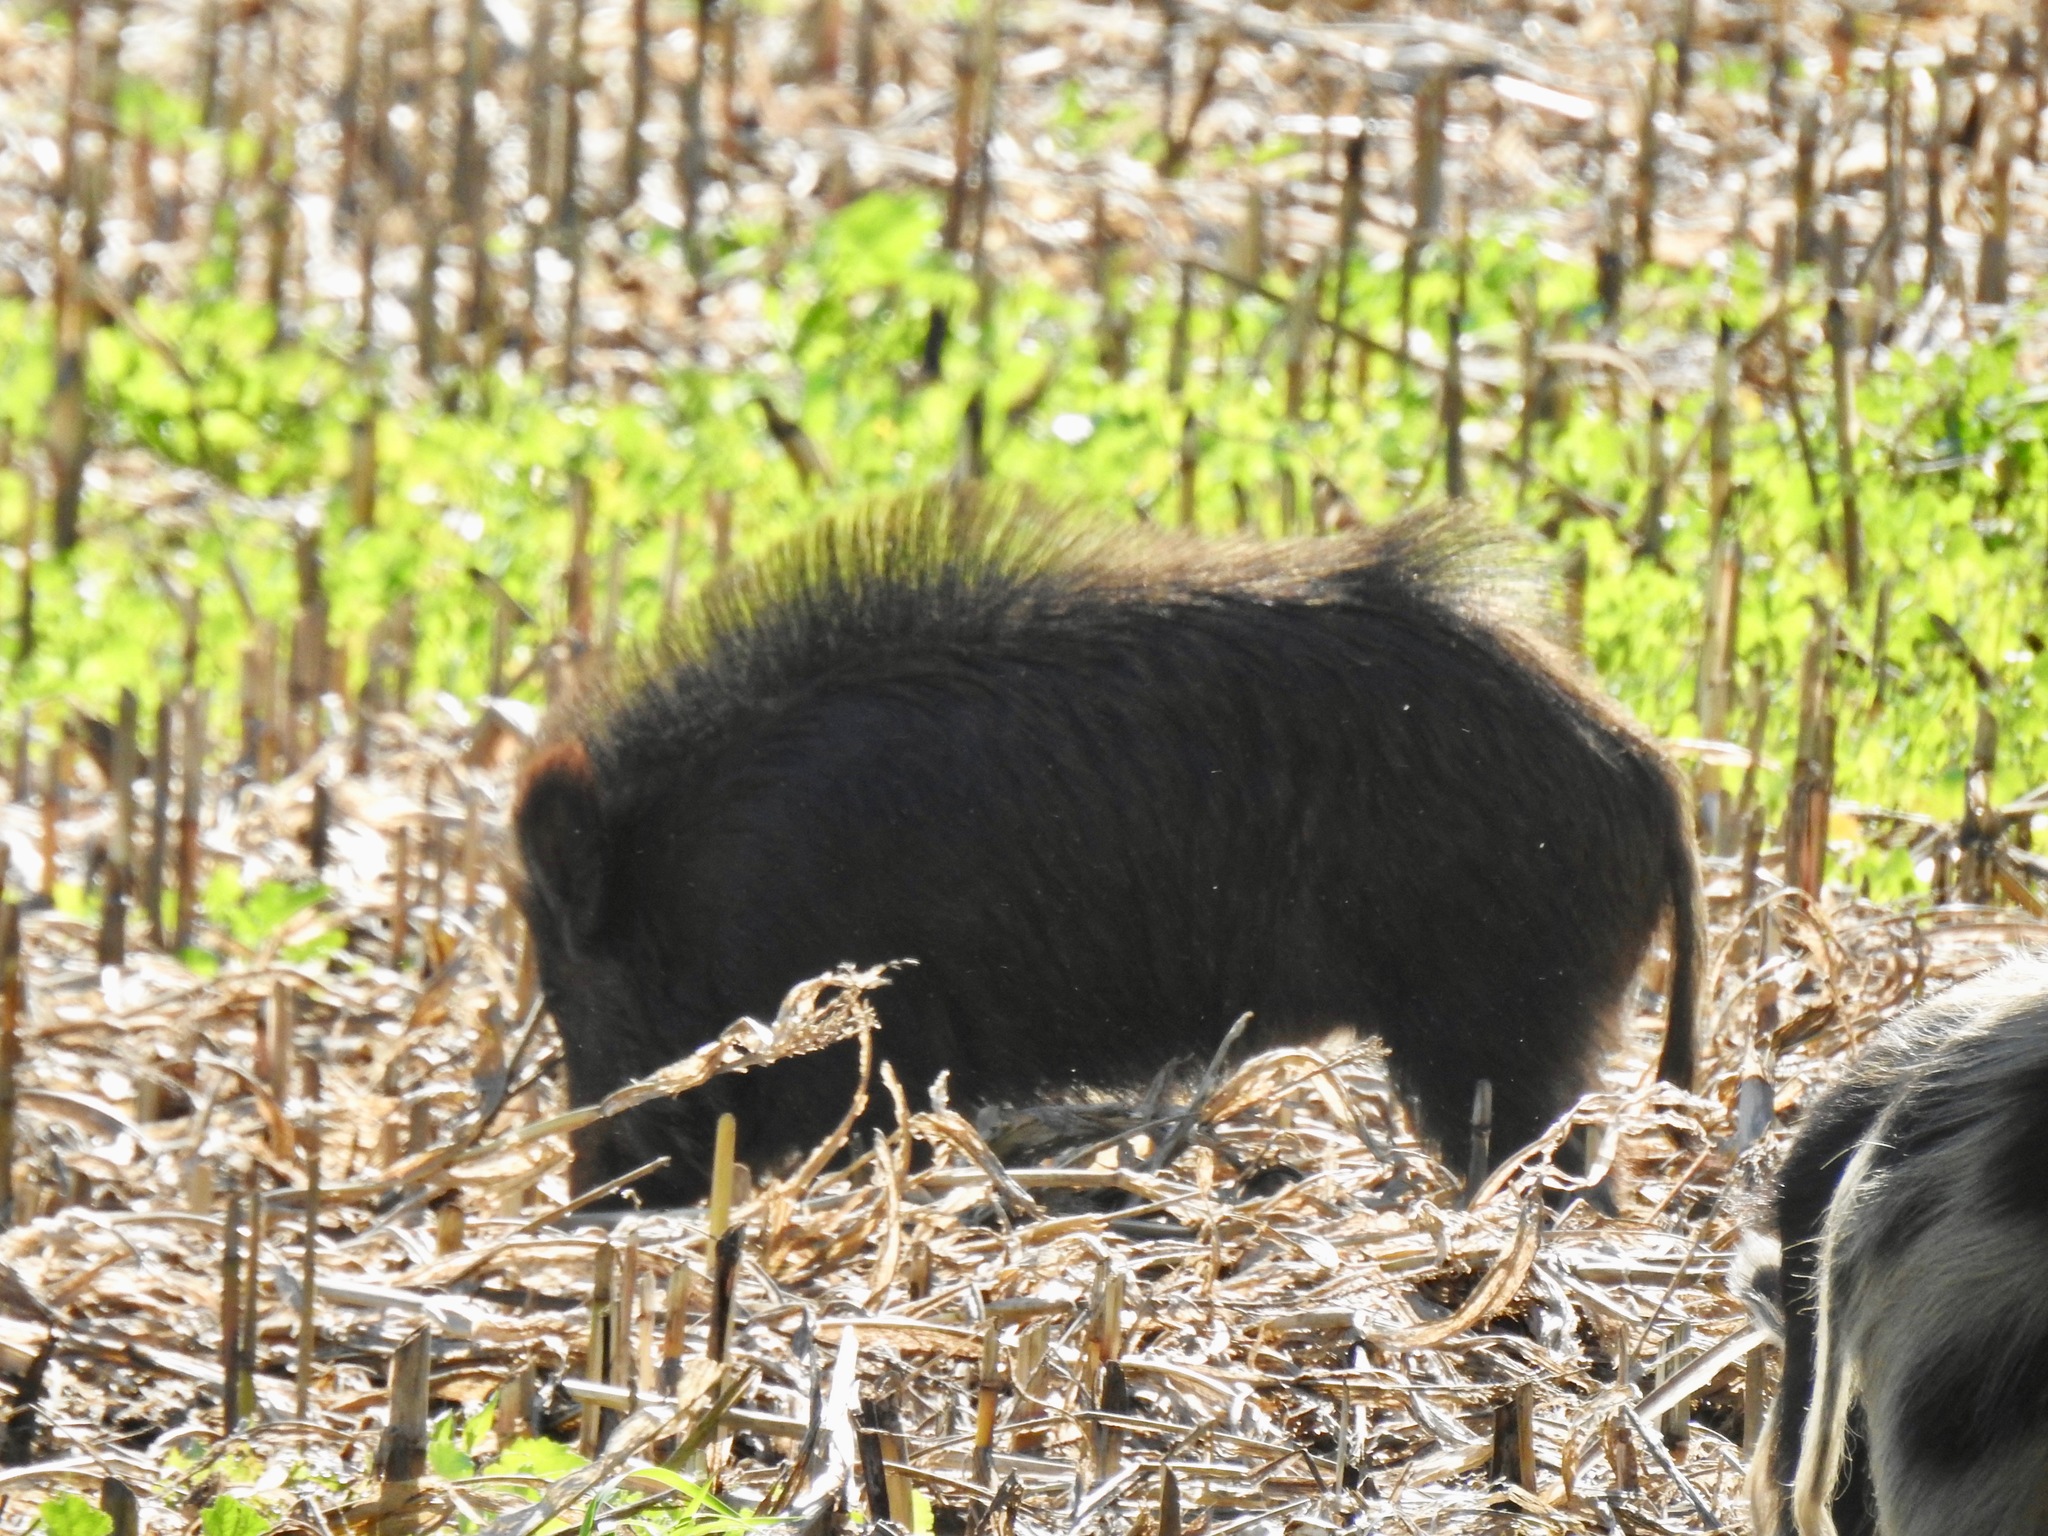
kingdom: Animalia
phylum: Chordata
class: Mammalia
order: Artiodactyla
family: Suidae
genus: Sus
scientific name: Sus scrofa
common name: Wild boar
